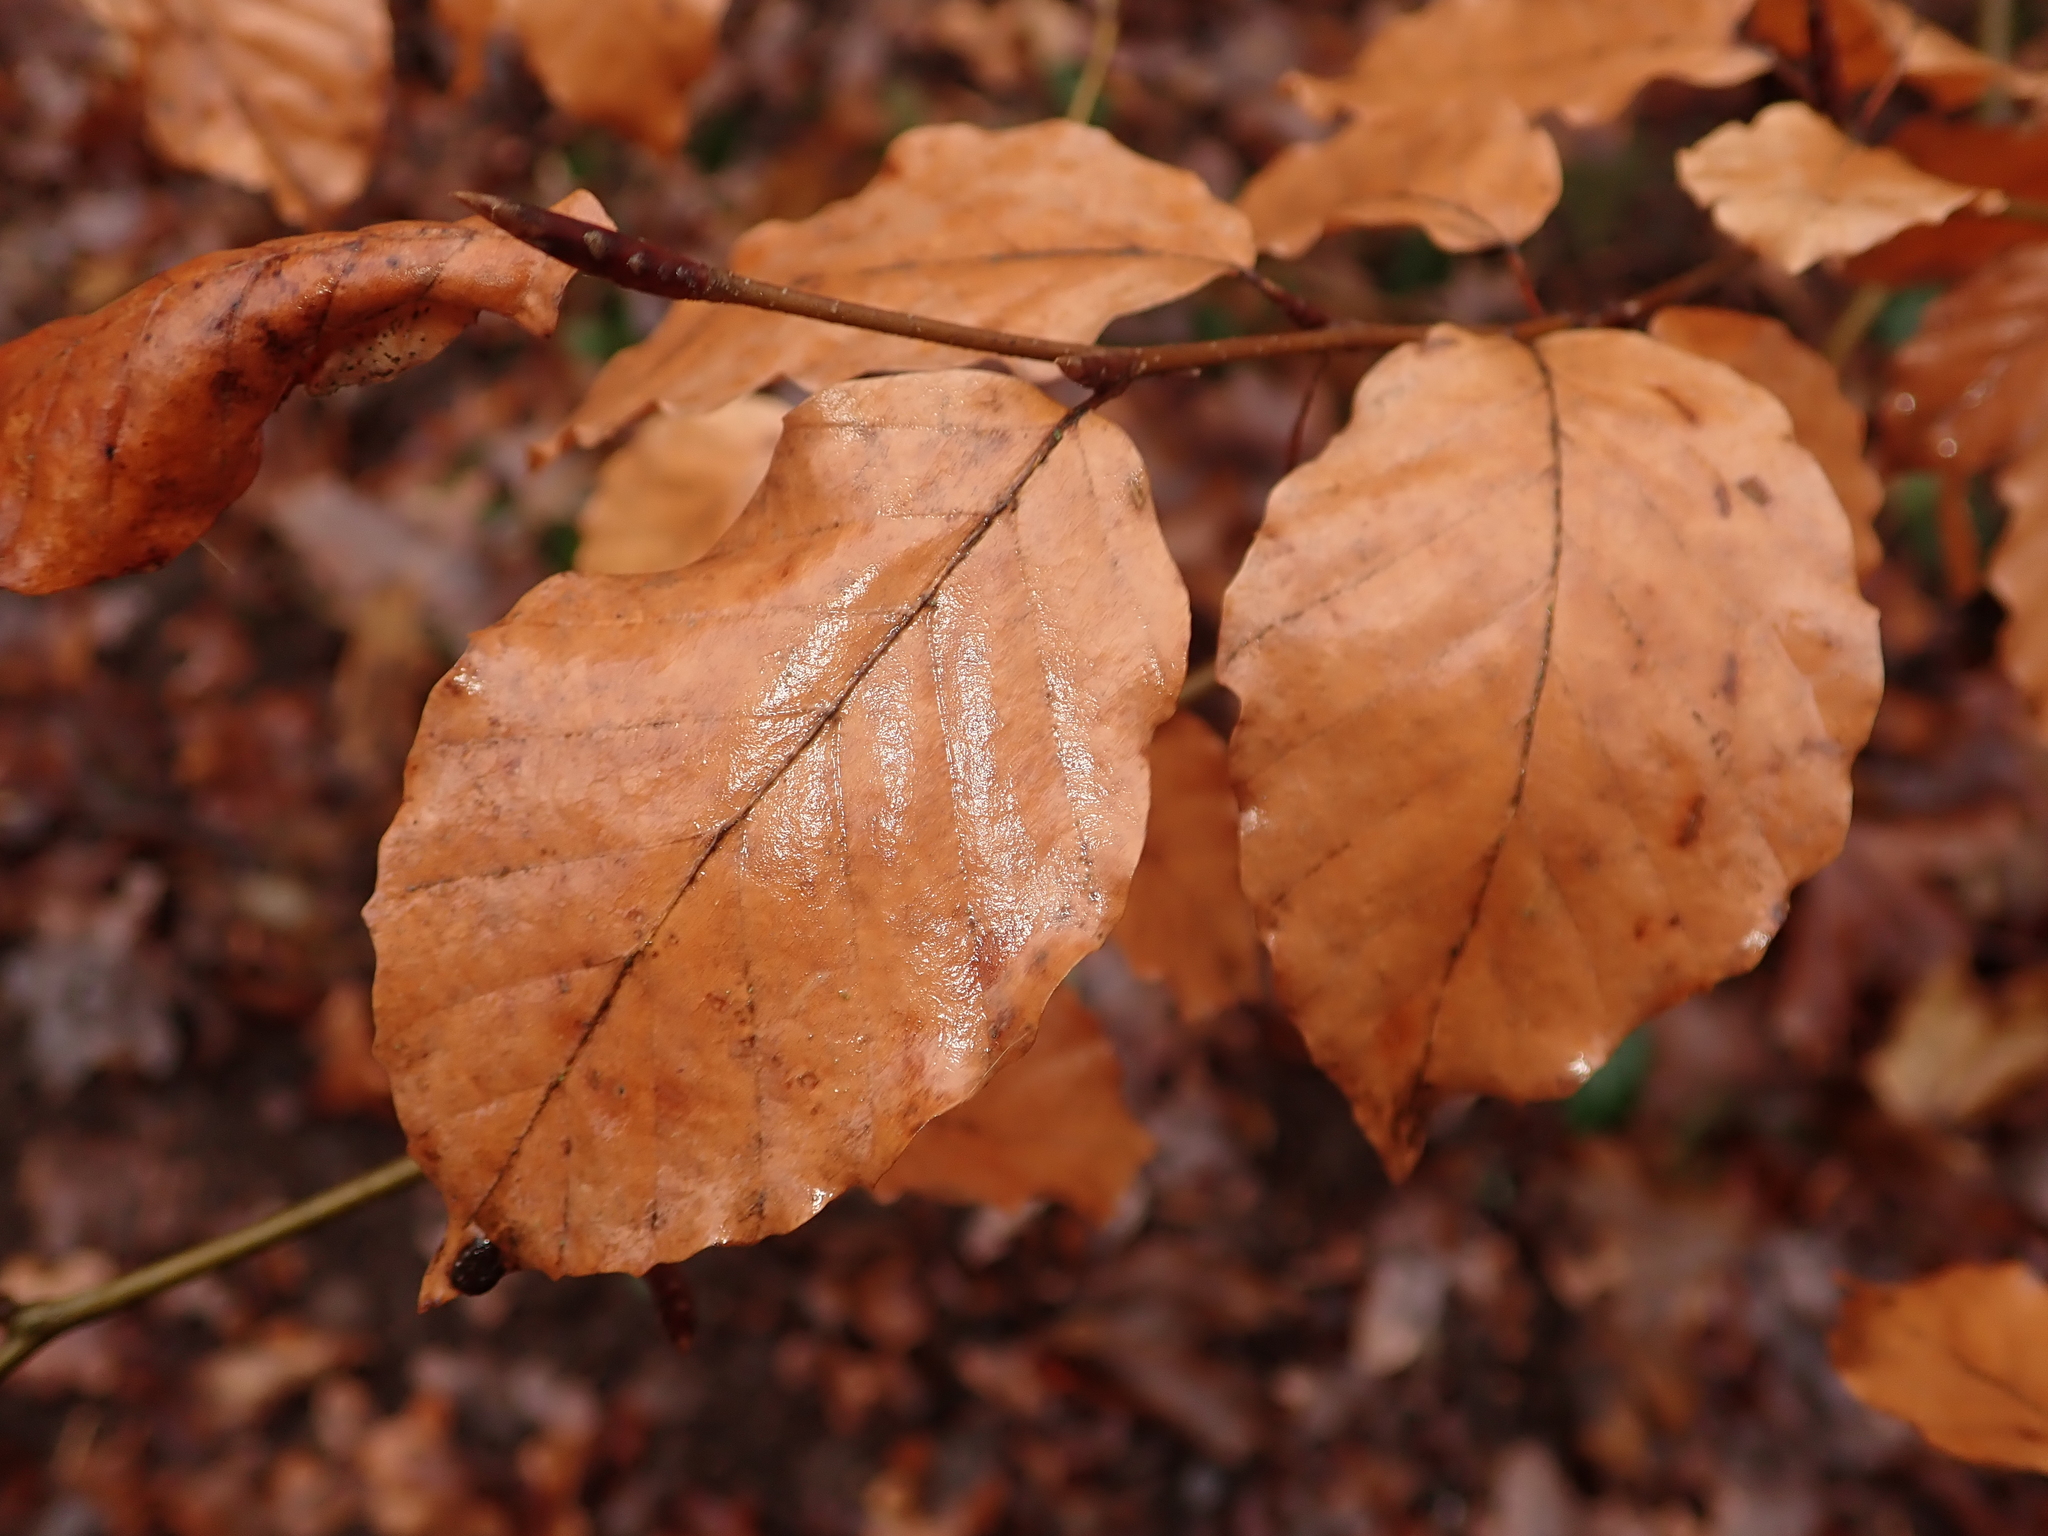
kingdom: Plantae
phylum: Tracheophyta
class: Magnoliopsida
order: Fagales
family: Fagaceae
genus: Fagus
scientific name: Fagus sylvatica
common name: Beech
